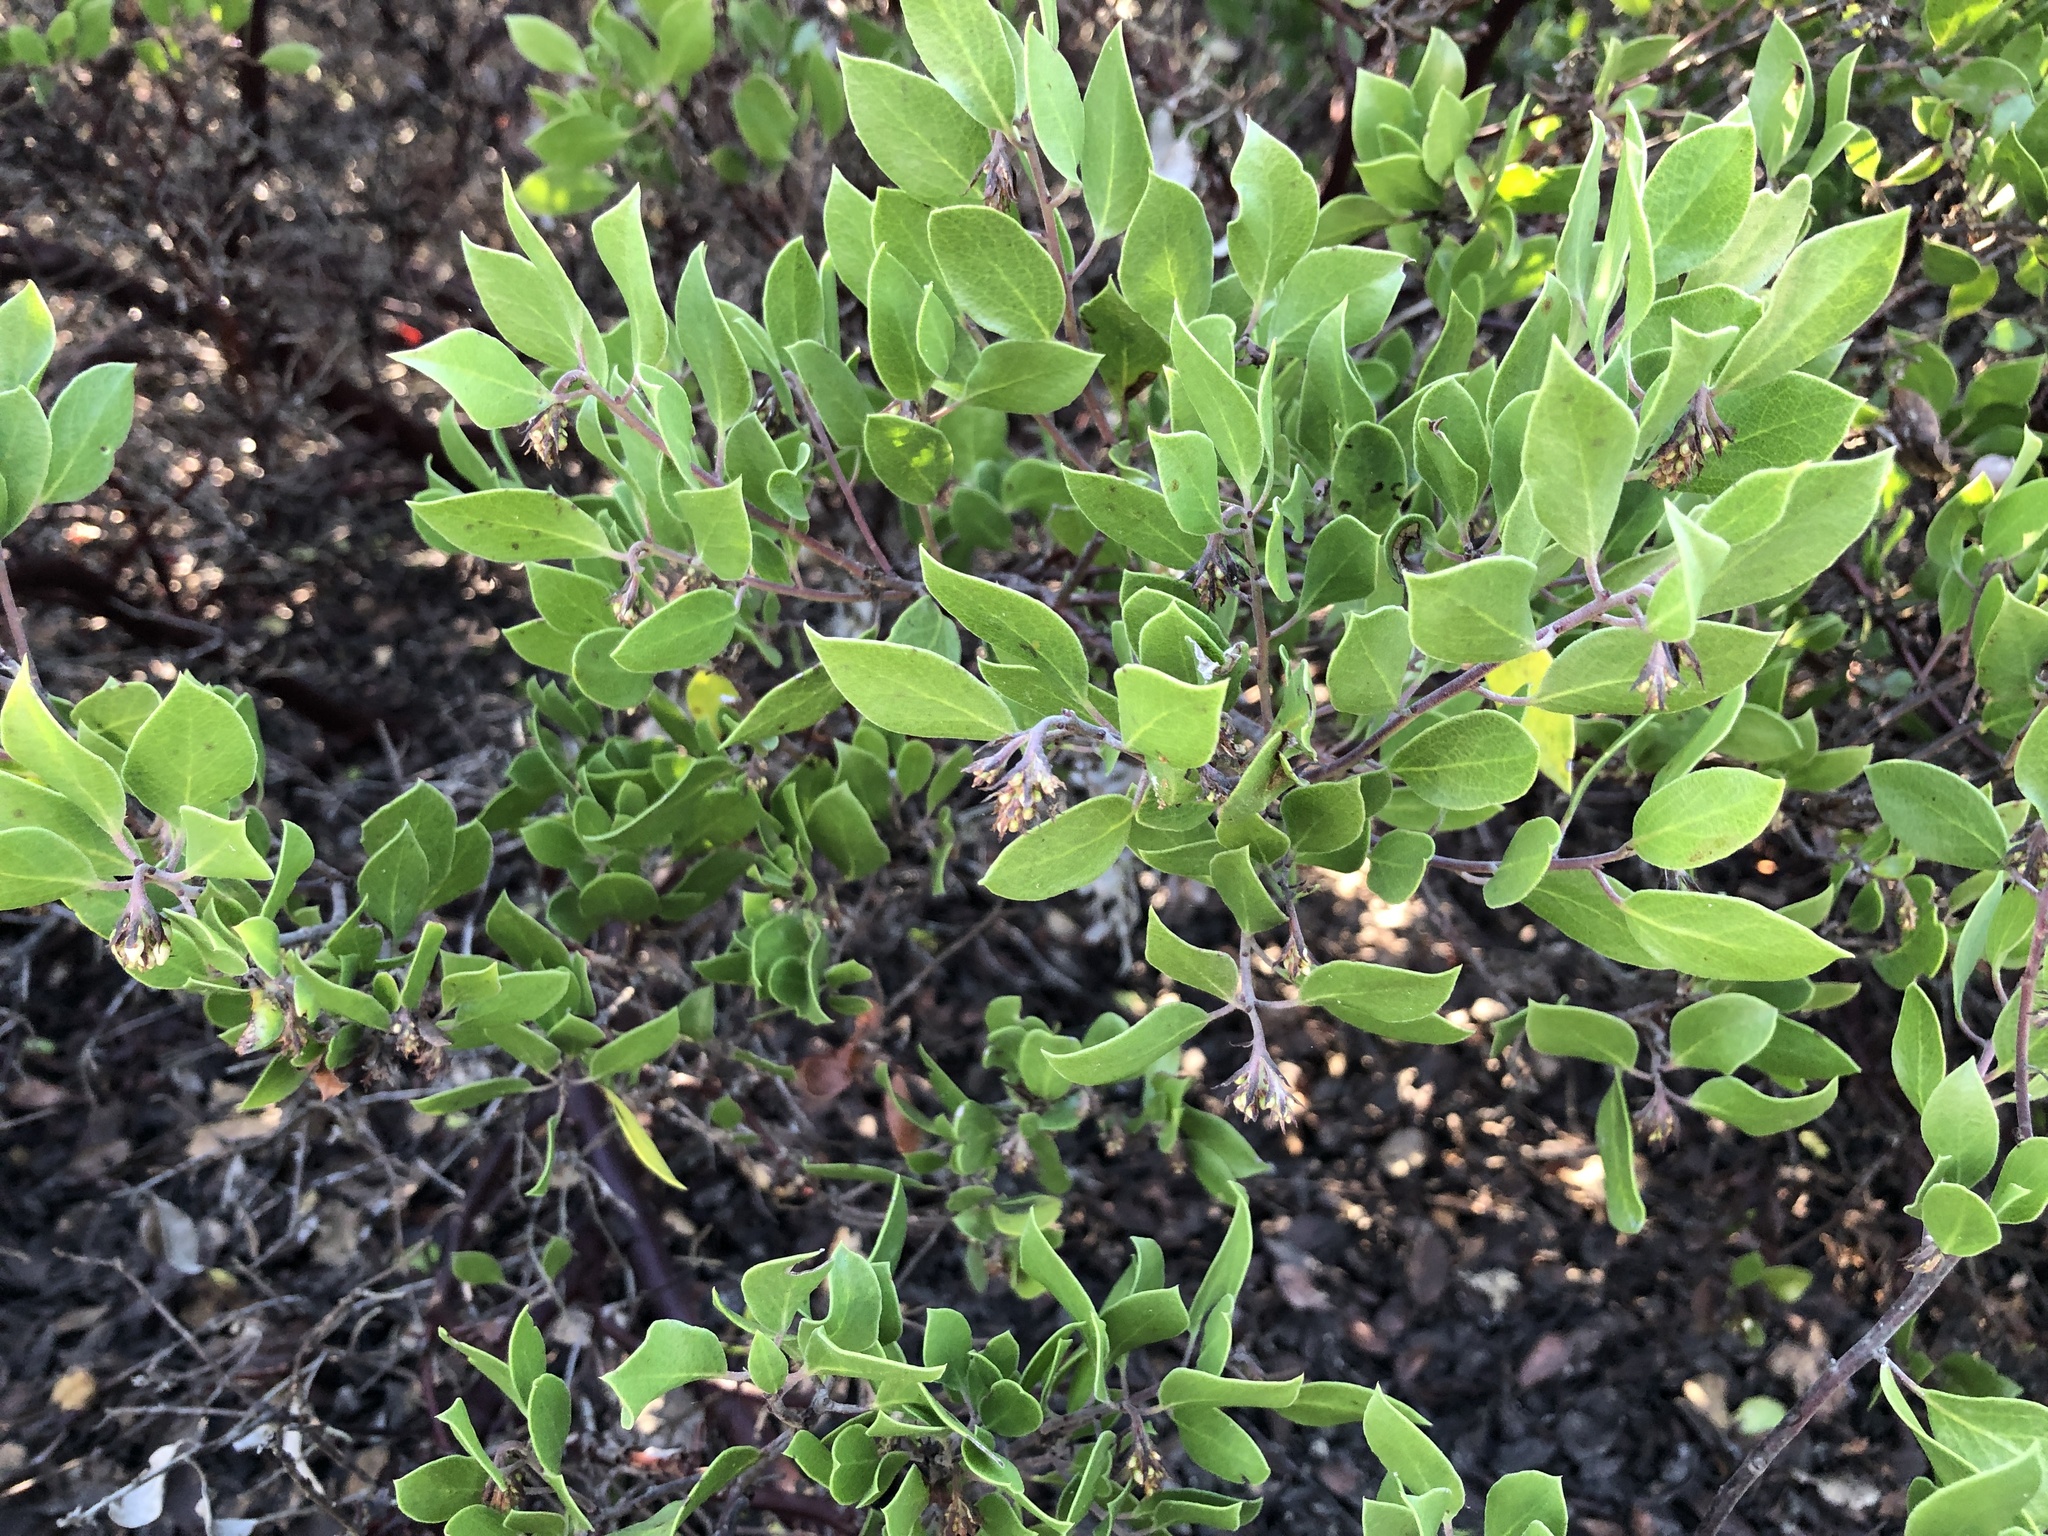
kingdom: Plantae
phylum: Tracheophyta
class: Magnoliopsida
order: Ericales
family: Ericaceae
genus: Arctostaphylos
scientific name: Arctostaphylos hookeri
